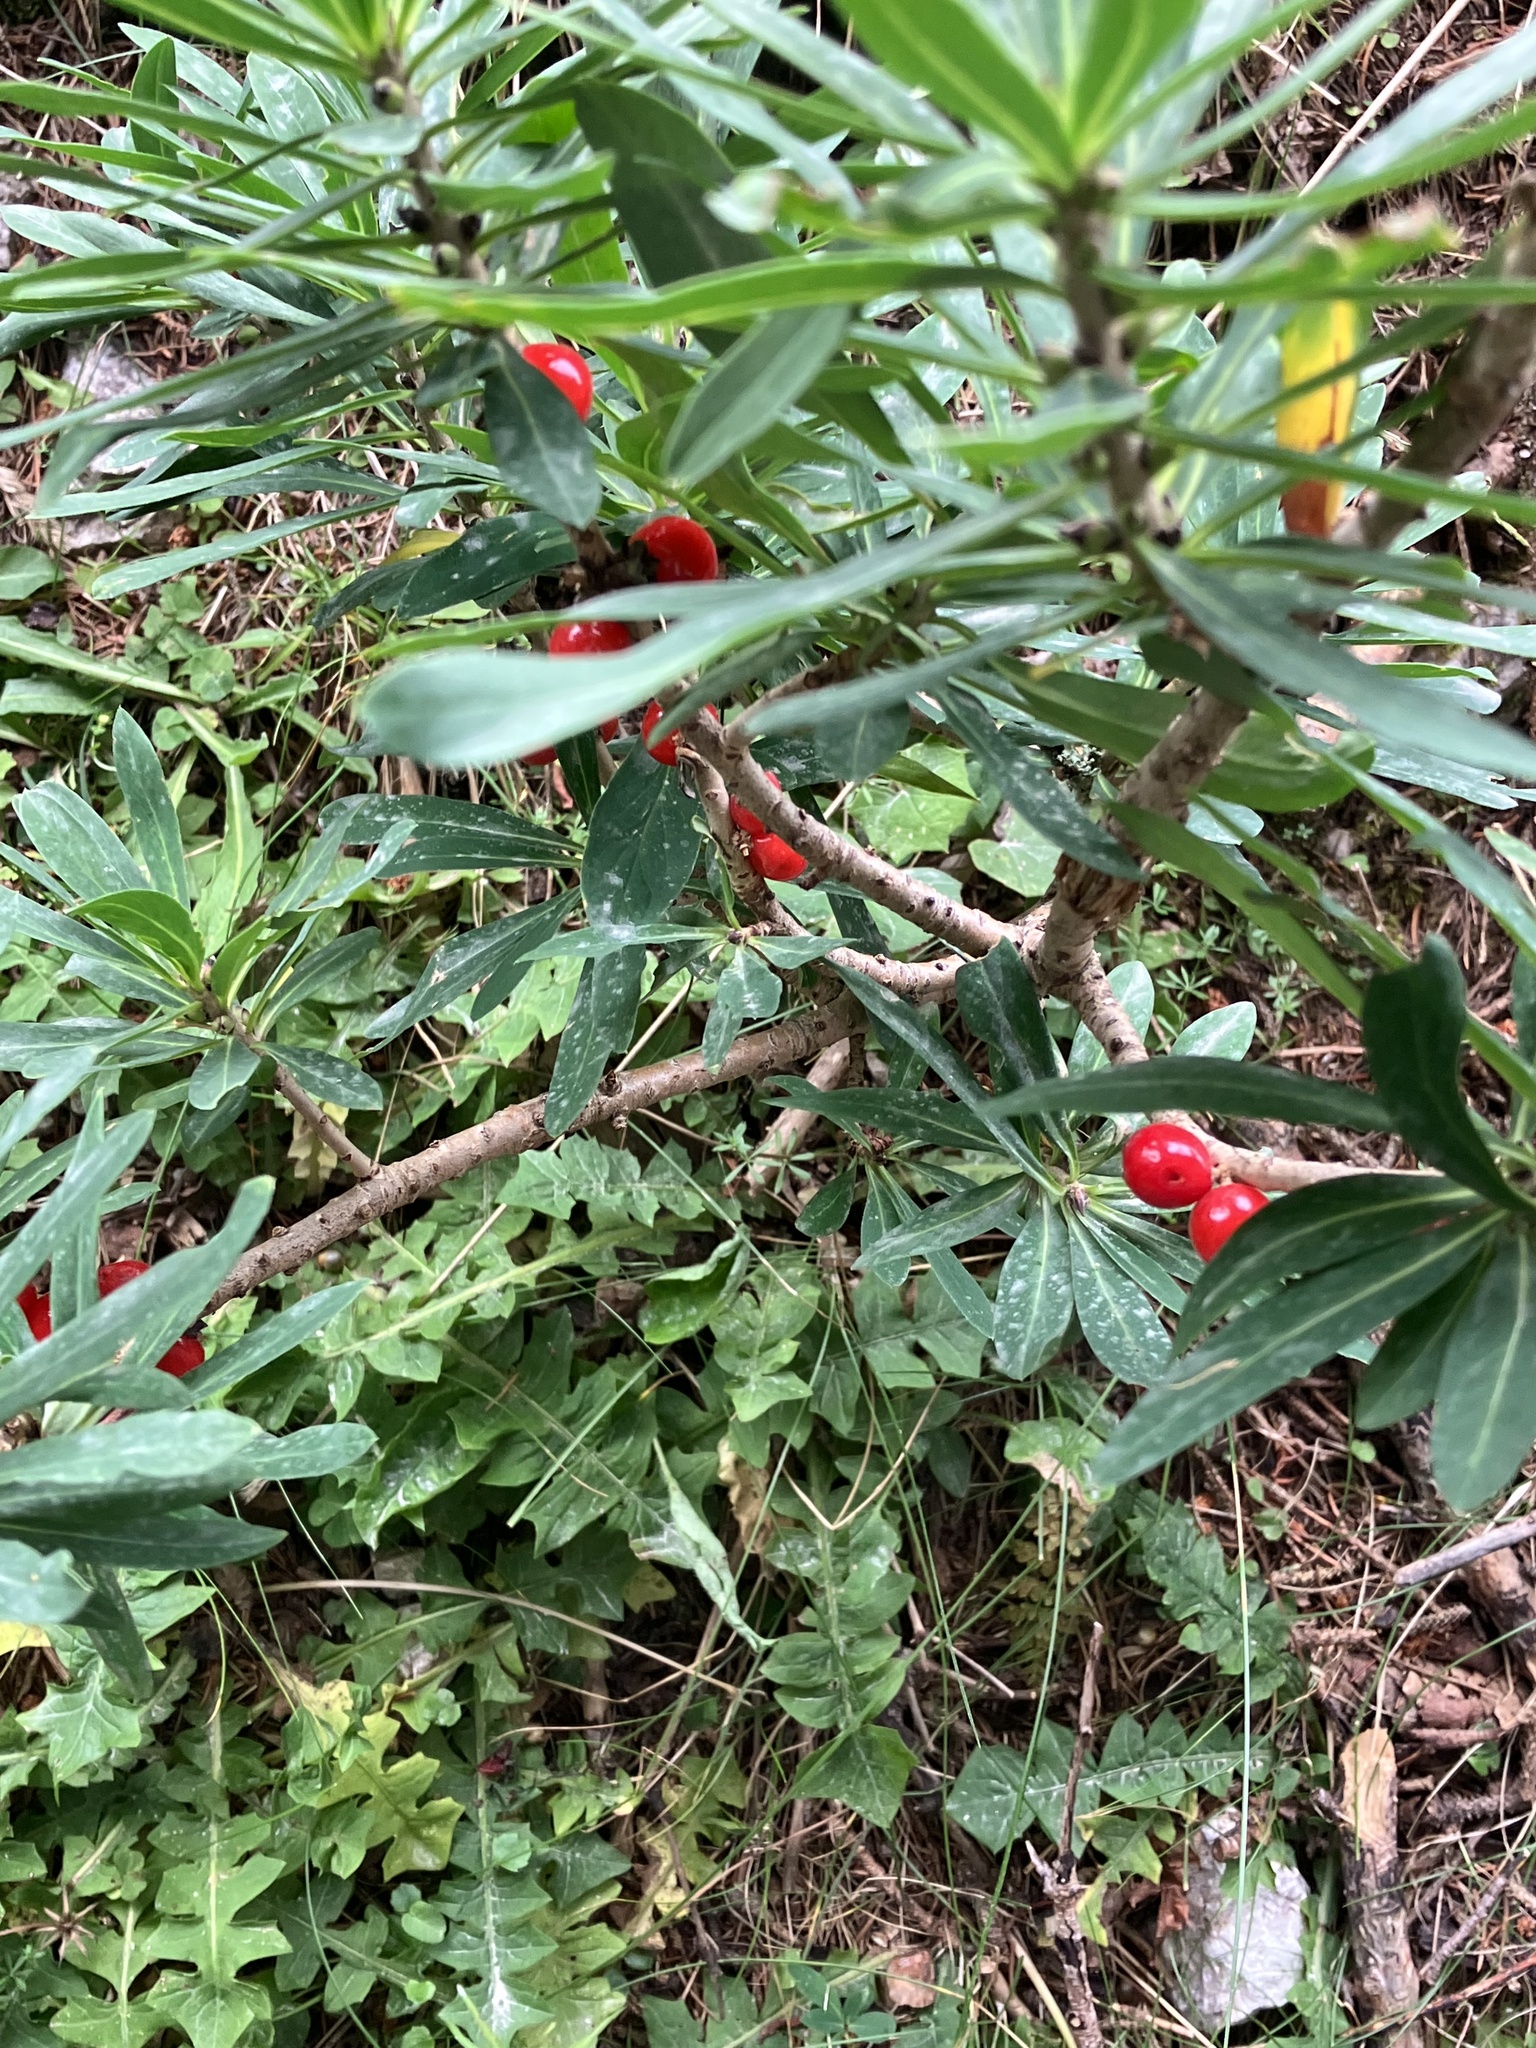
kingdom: Plantae
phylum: Tracheophyta
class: Magnoliopsida
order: Malvales
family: Thymelaeaceae
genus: Daphne
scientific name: Daphne mezereum
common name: Mezereon
